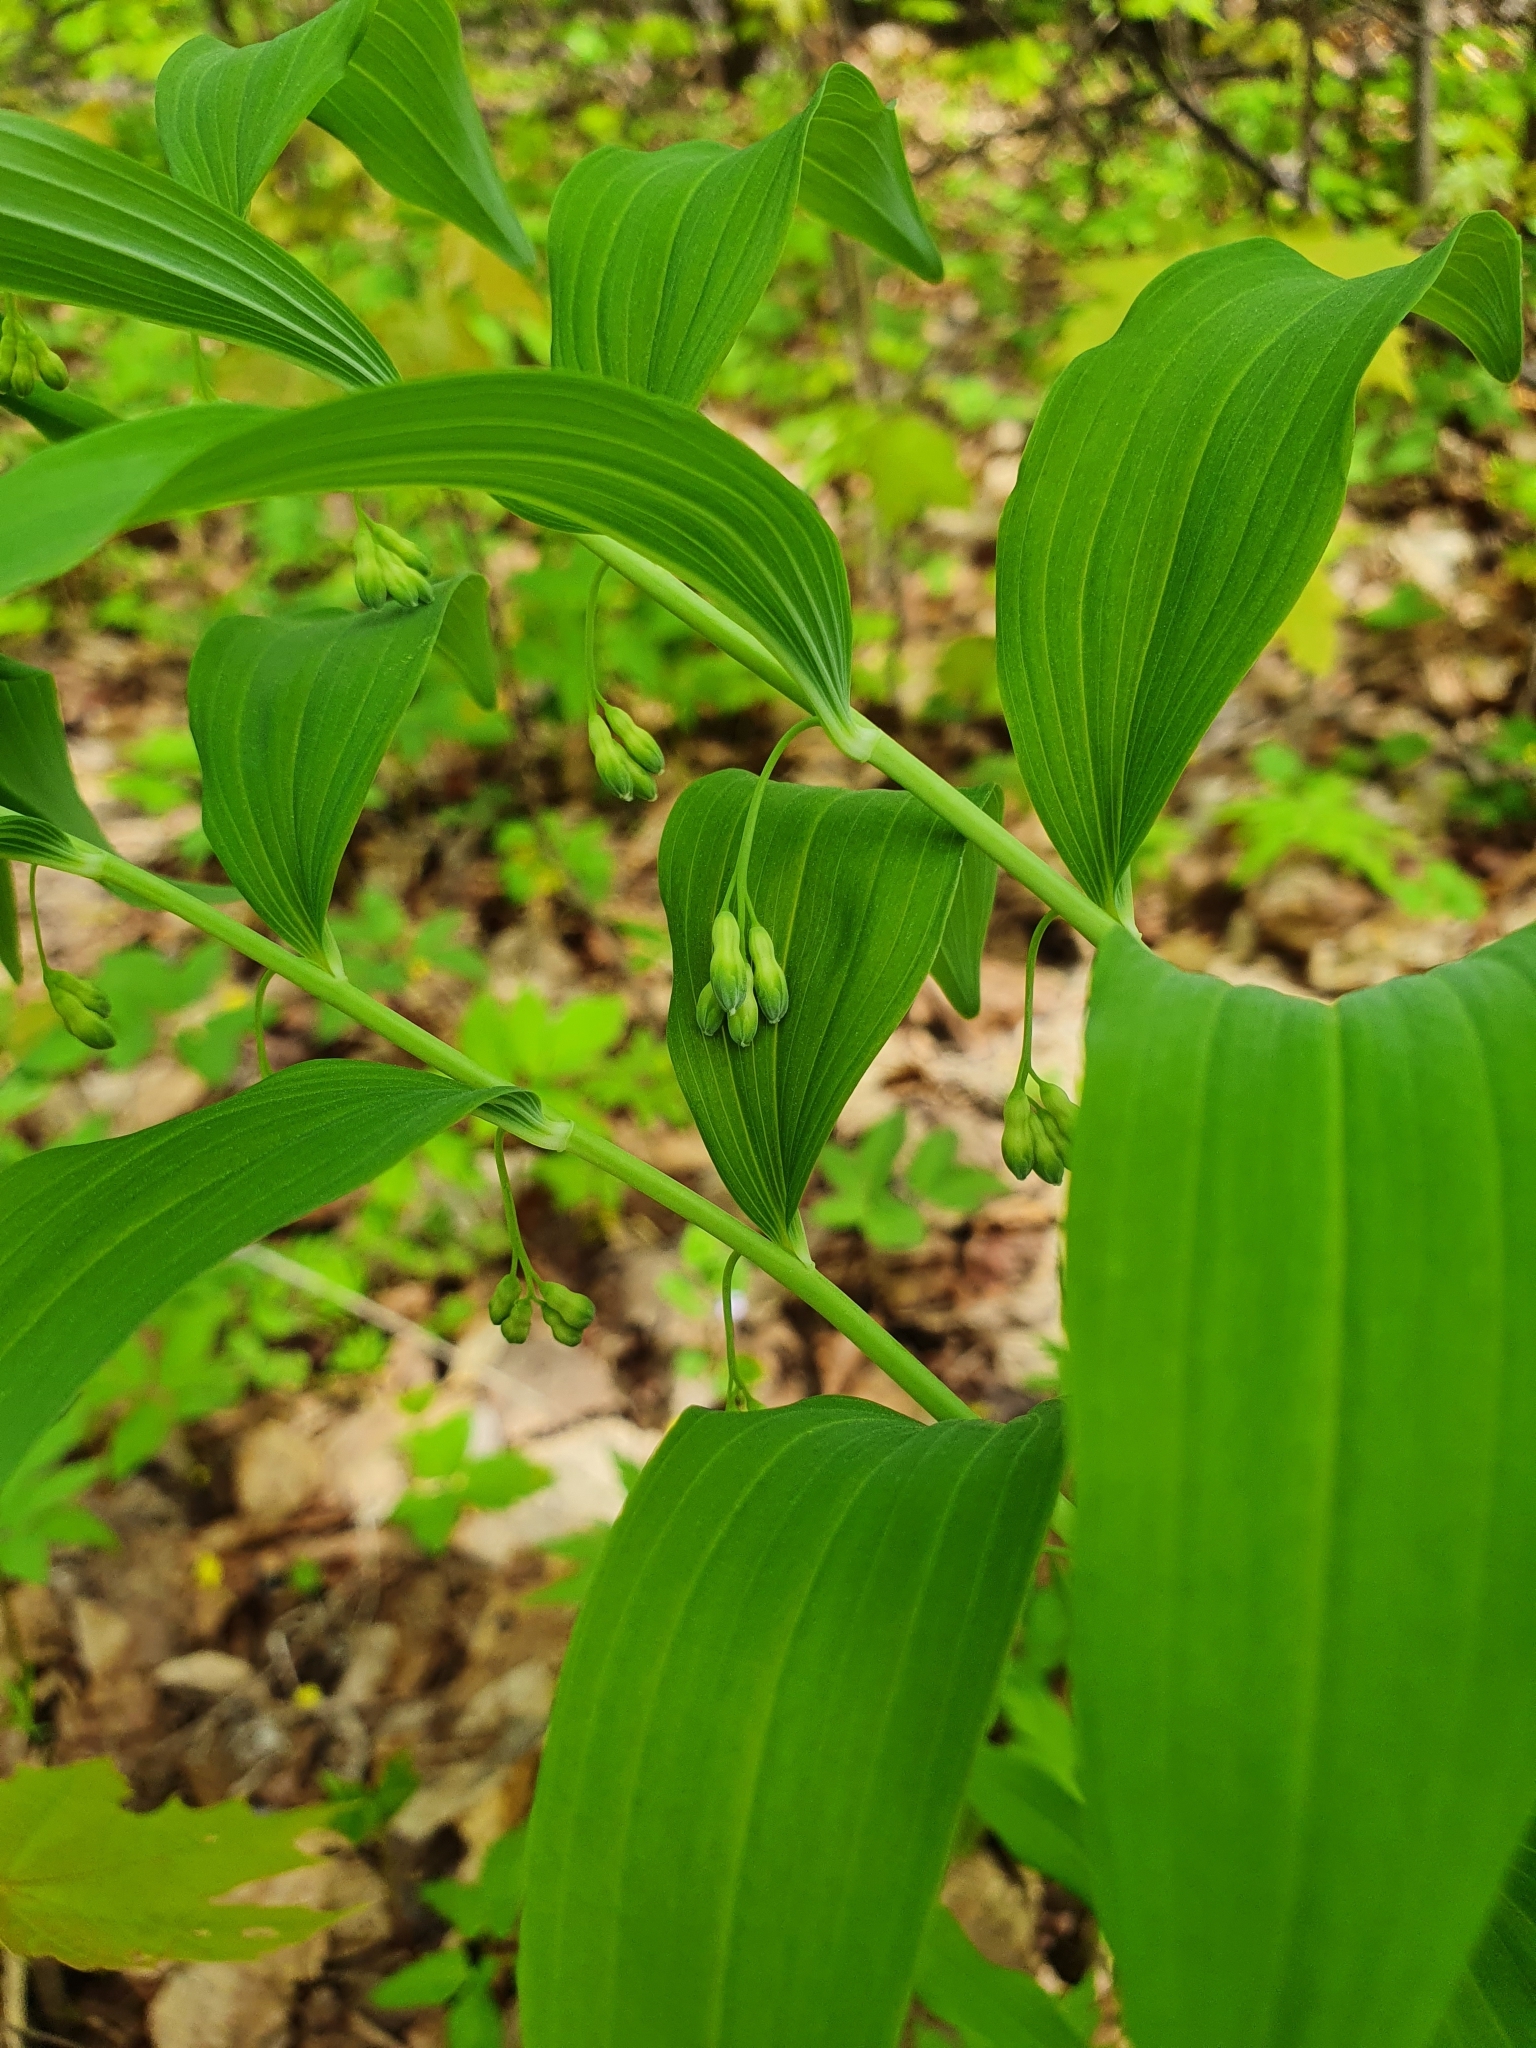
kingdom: Plantae
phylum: Tracheophyta
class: Liliopsida
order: Asparagales
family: Asparagaceae
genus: Polygonatum
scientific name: Polygonatum multiflorum
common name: Solomon's-seal
